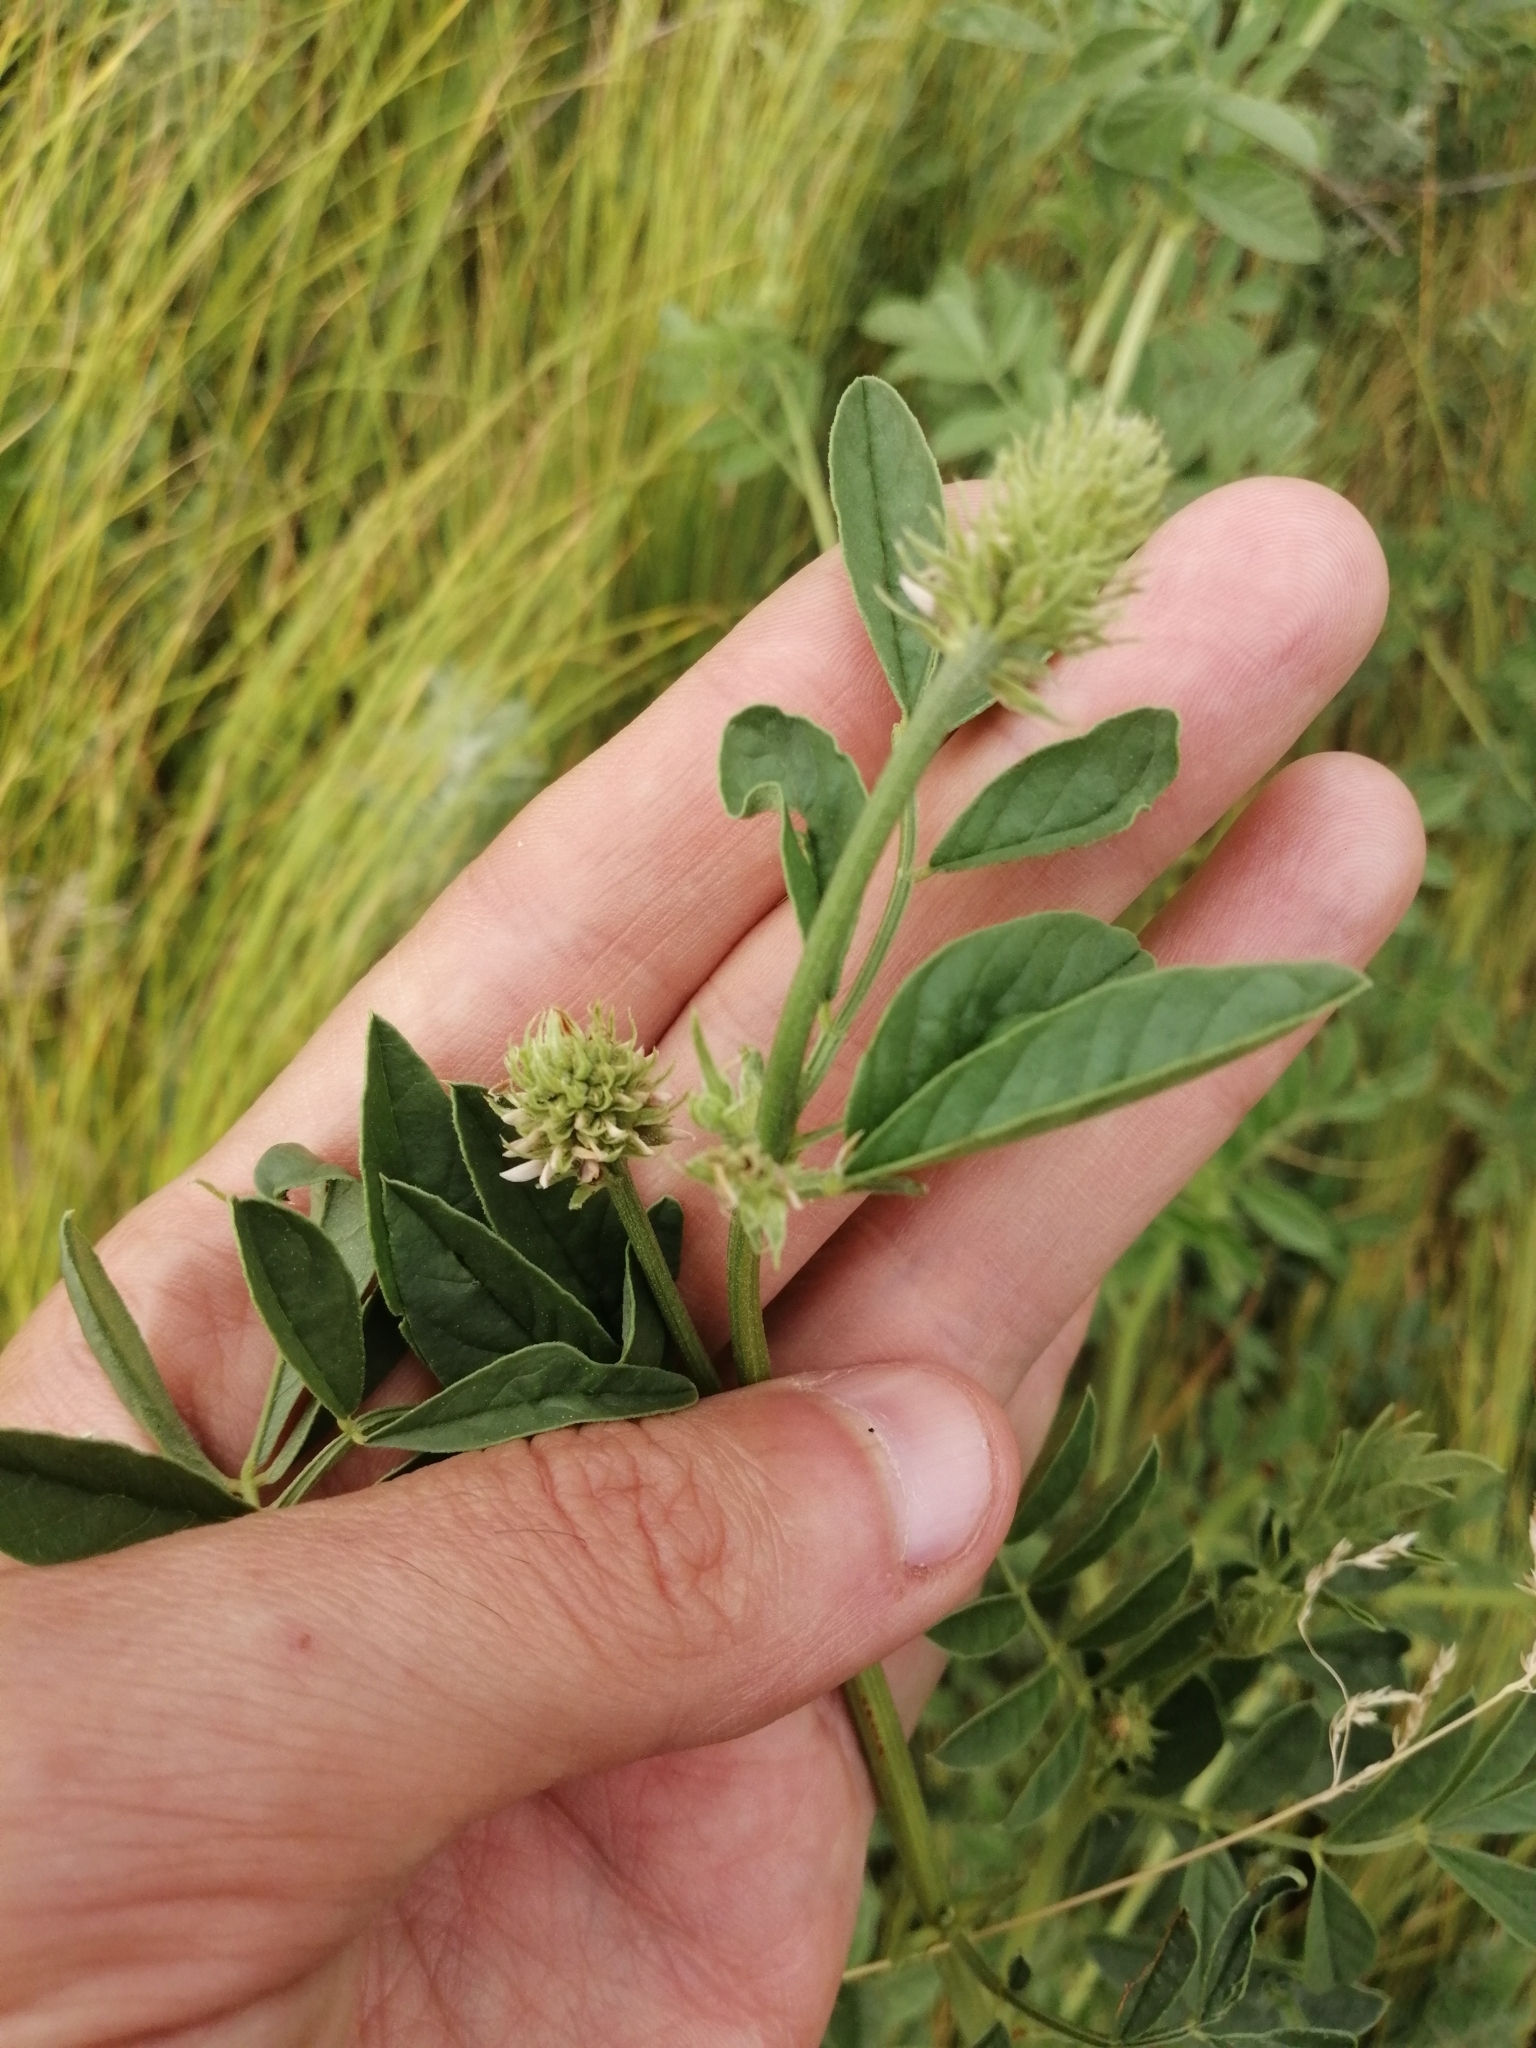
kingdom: Plantae
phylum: Tracheophyta
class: Magnoliopsida
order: Fabales
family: Fabaceae
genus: Glycyrrhiza
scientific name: Glycyrrhiza echinata
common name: German liquorice
